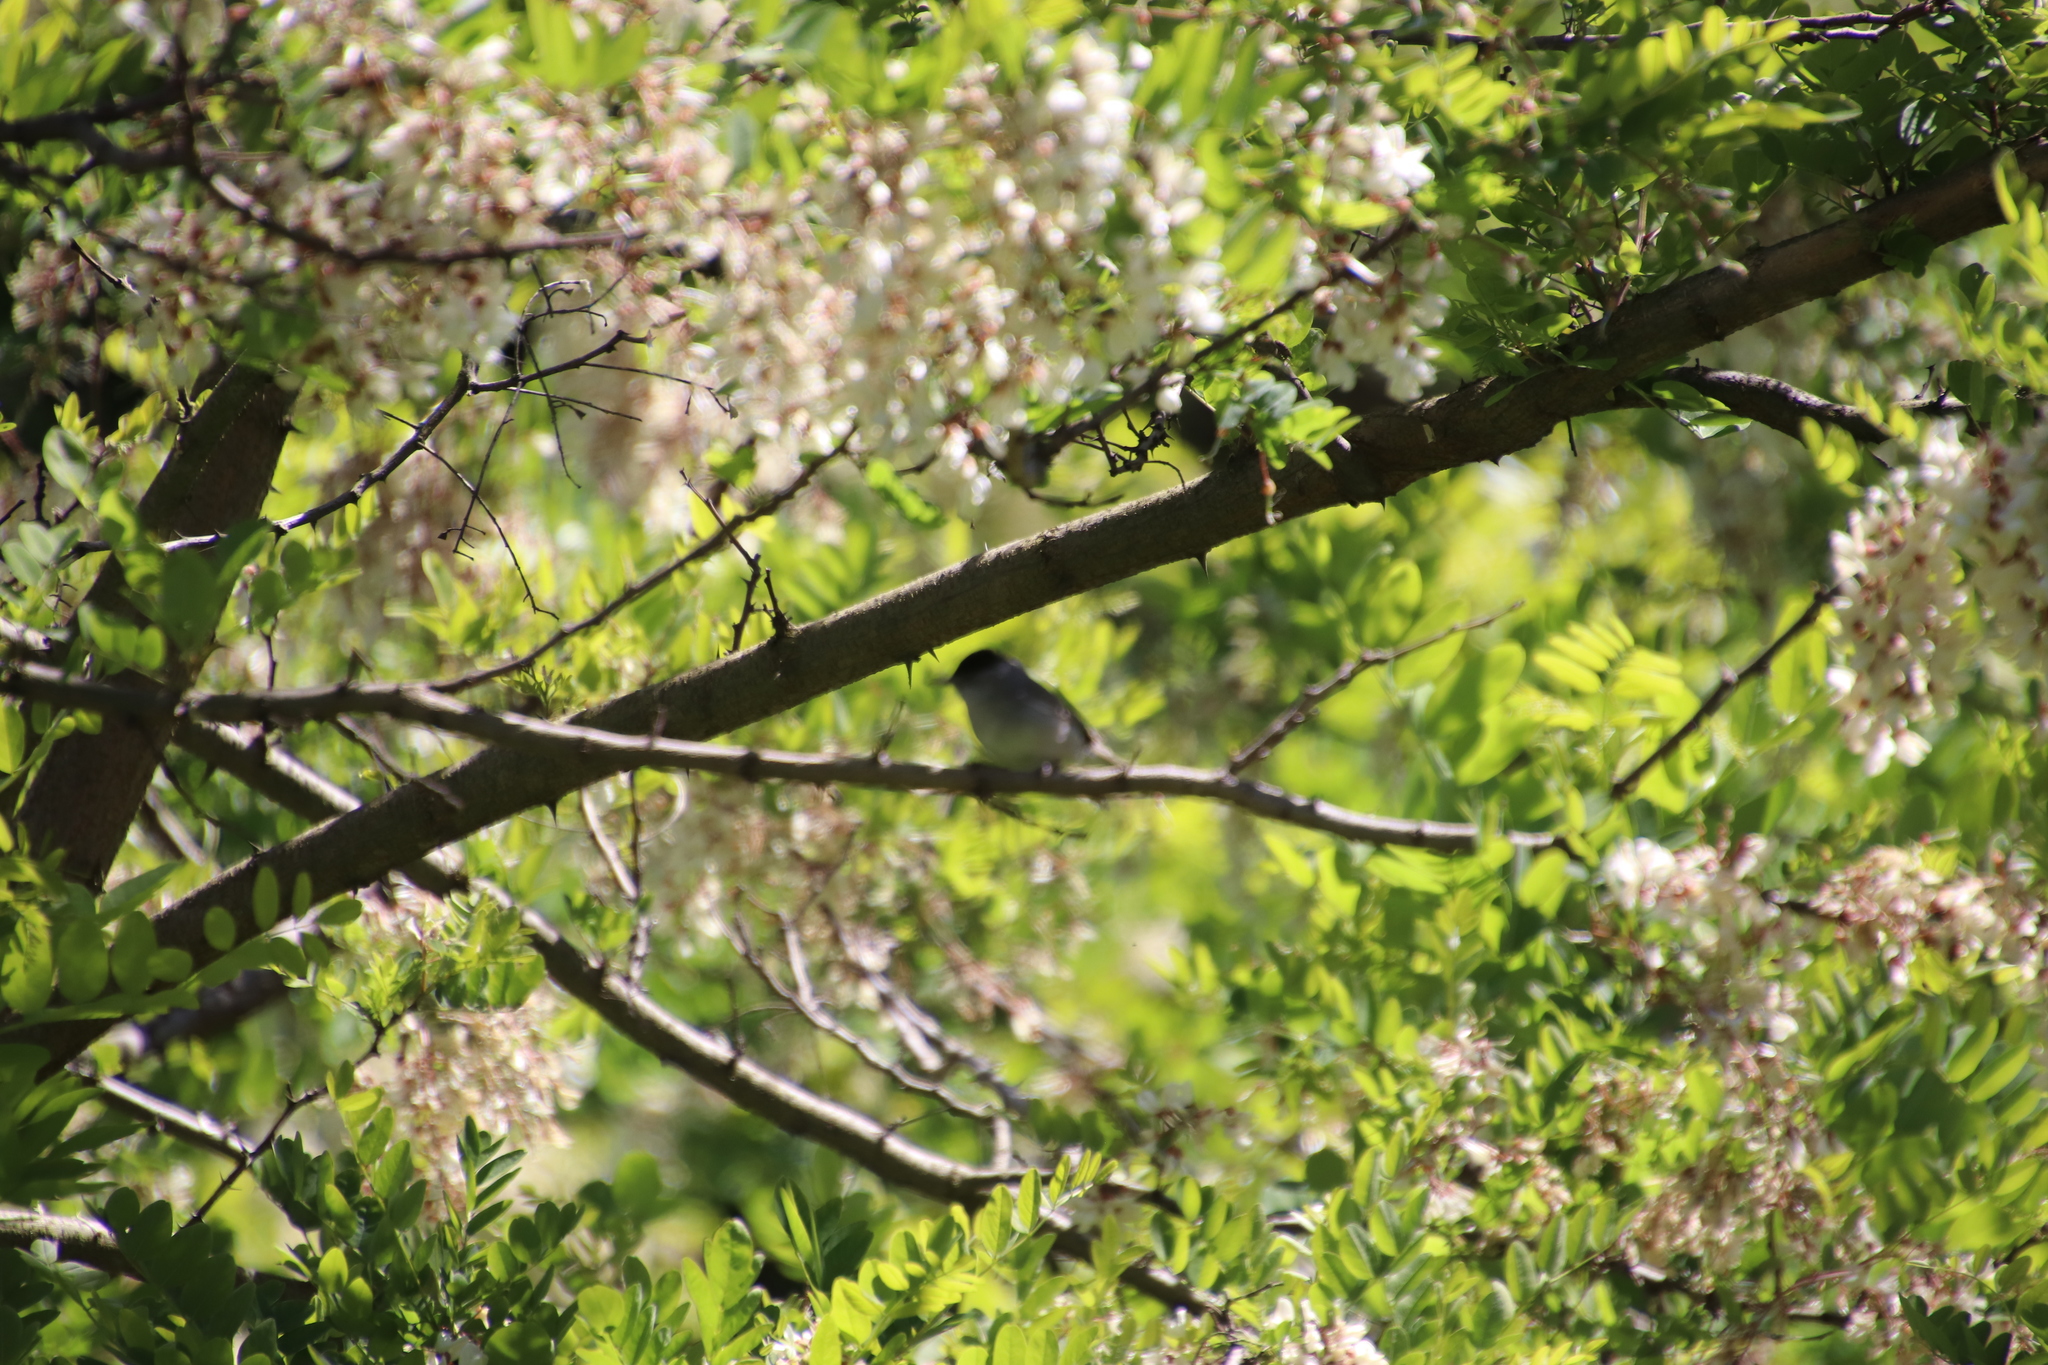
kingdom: Animalia
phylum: Chordata
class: Aves
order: Passeriformes
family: Sylviidae
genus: Sylvia
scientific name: Sylvia atricapilla
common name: Eurasian blackcap
